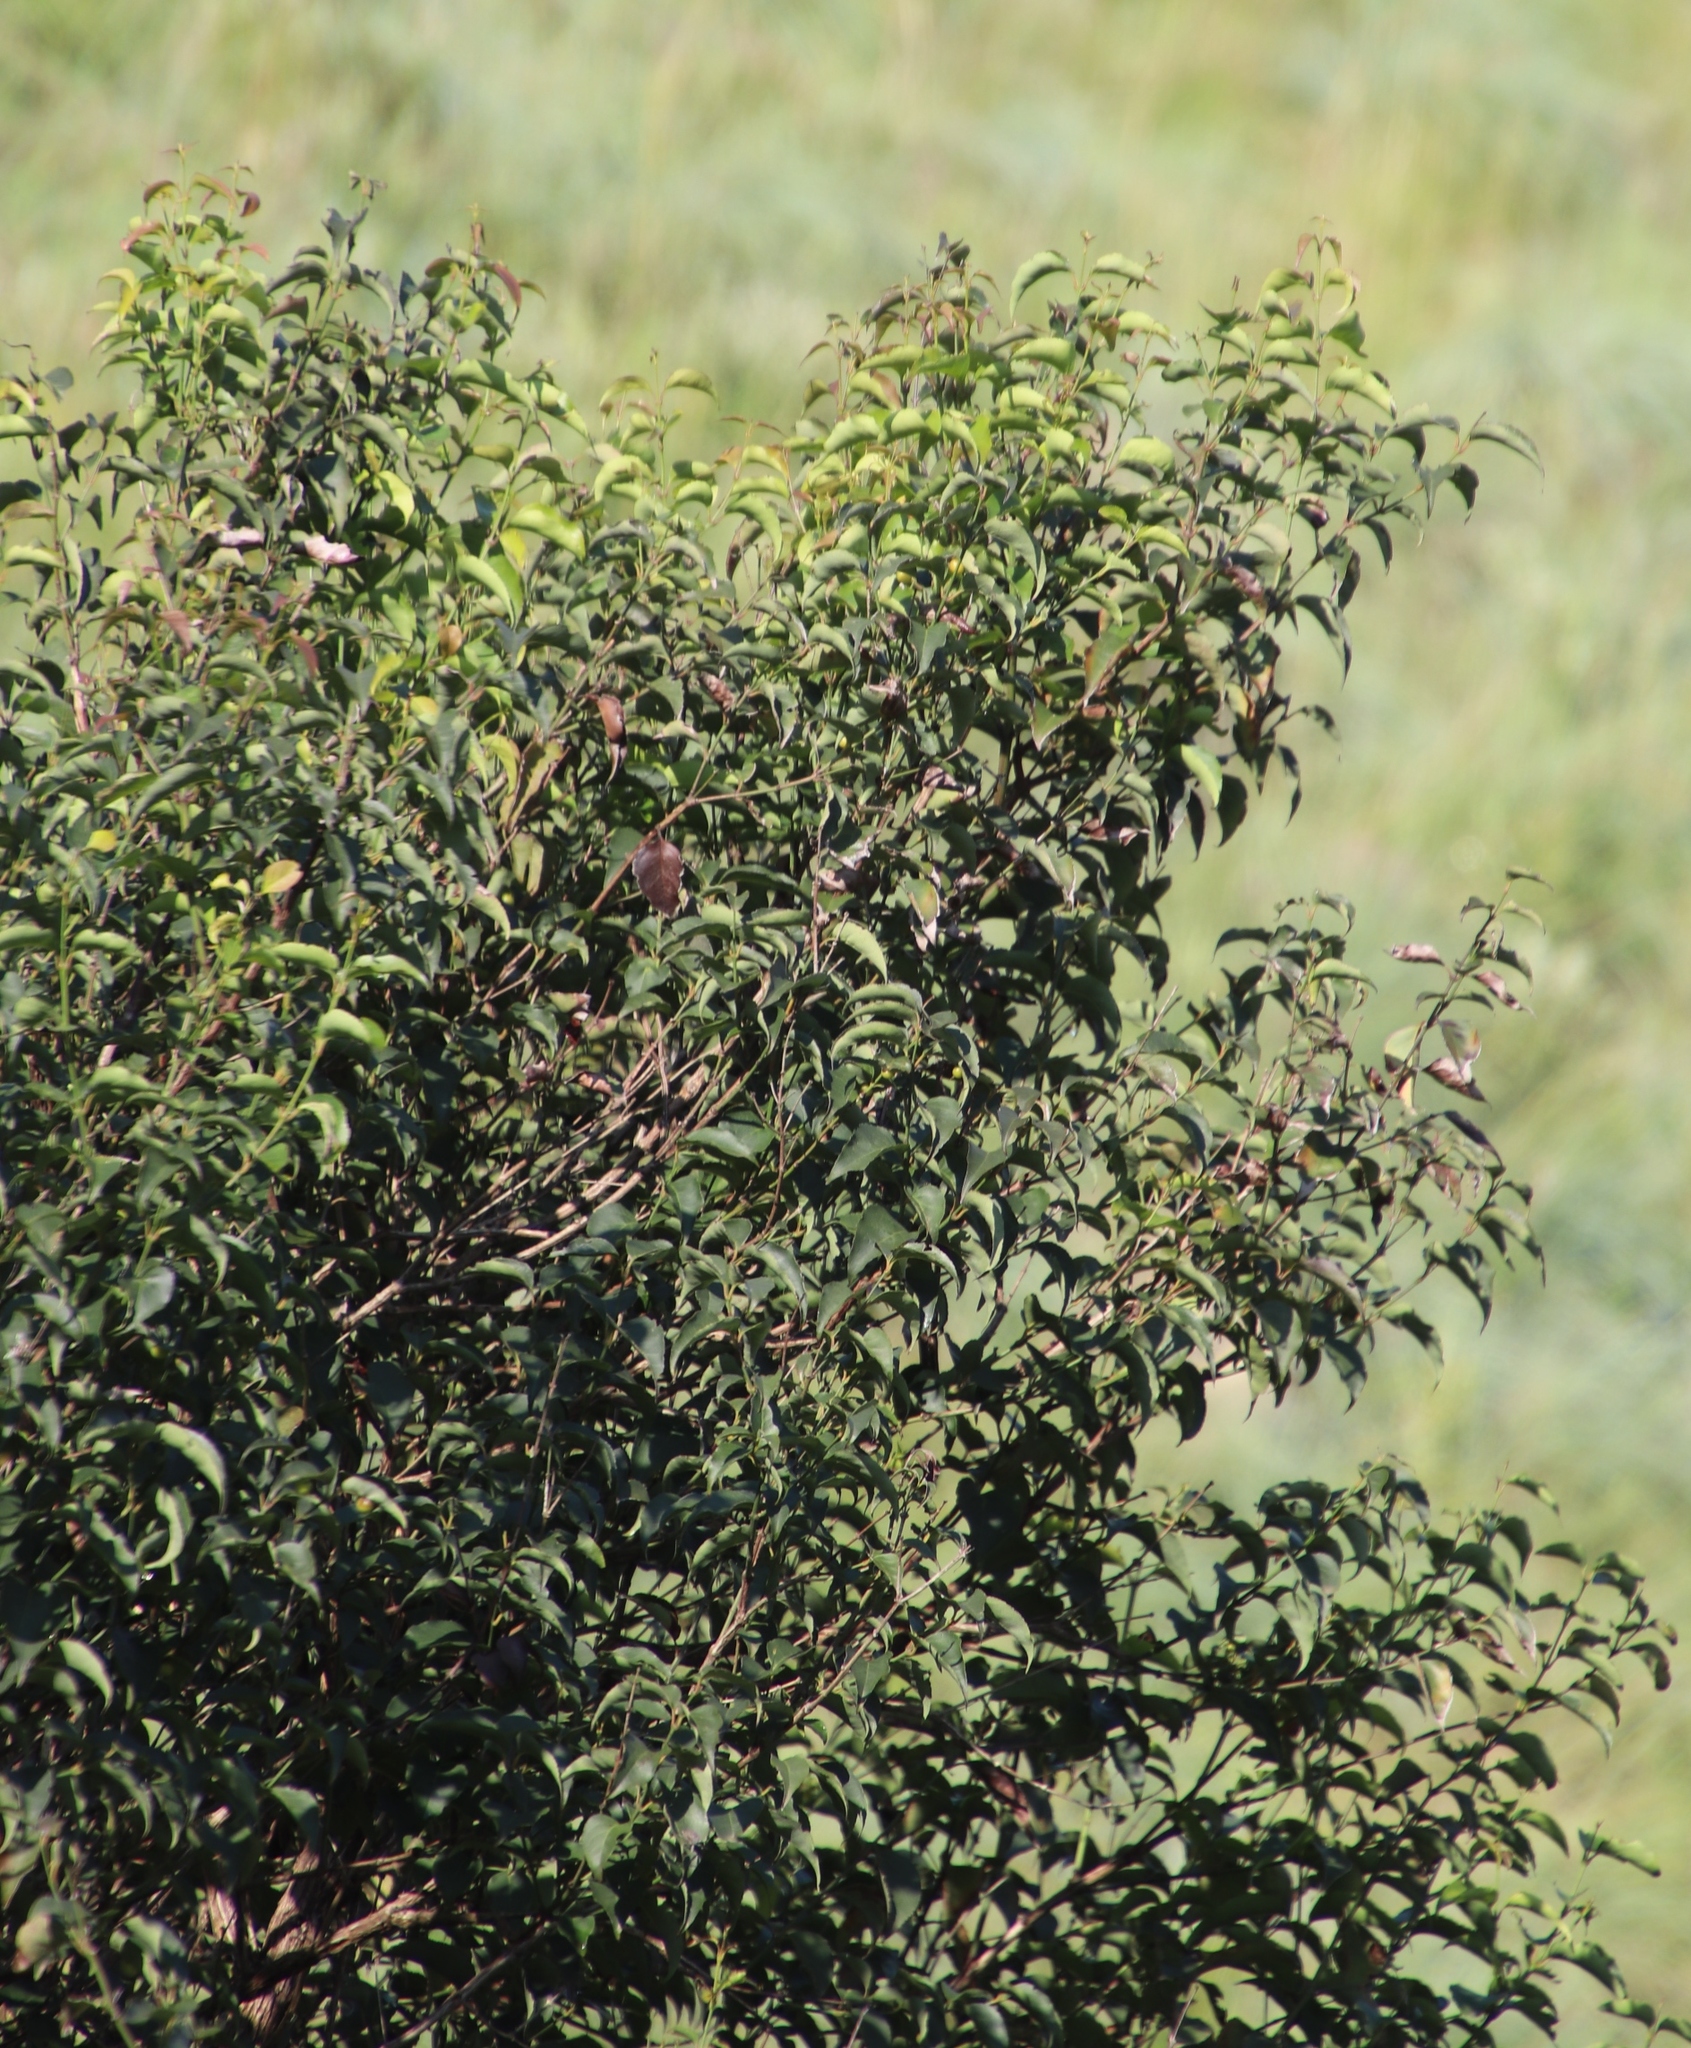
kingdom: Plantae
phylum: Tracheophyta
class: Magnoliopsida
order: Lamiales
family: Stilbaceae
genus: Halleria
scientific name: Halleria lucida
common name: Tree fuschia
